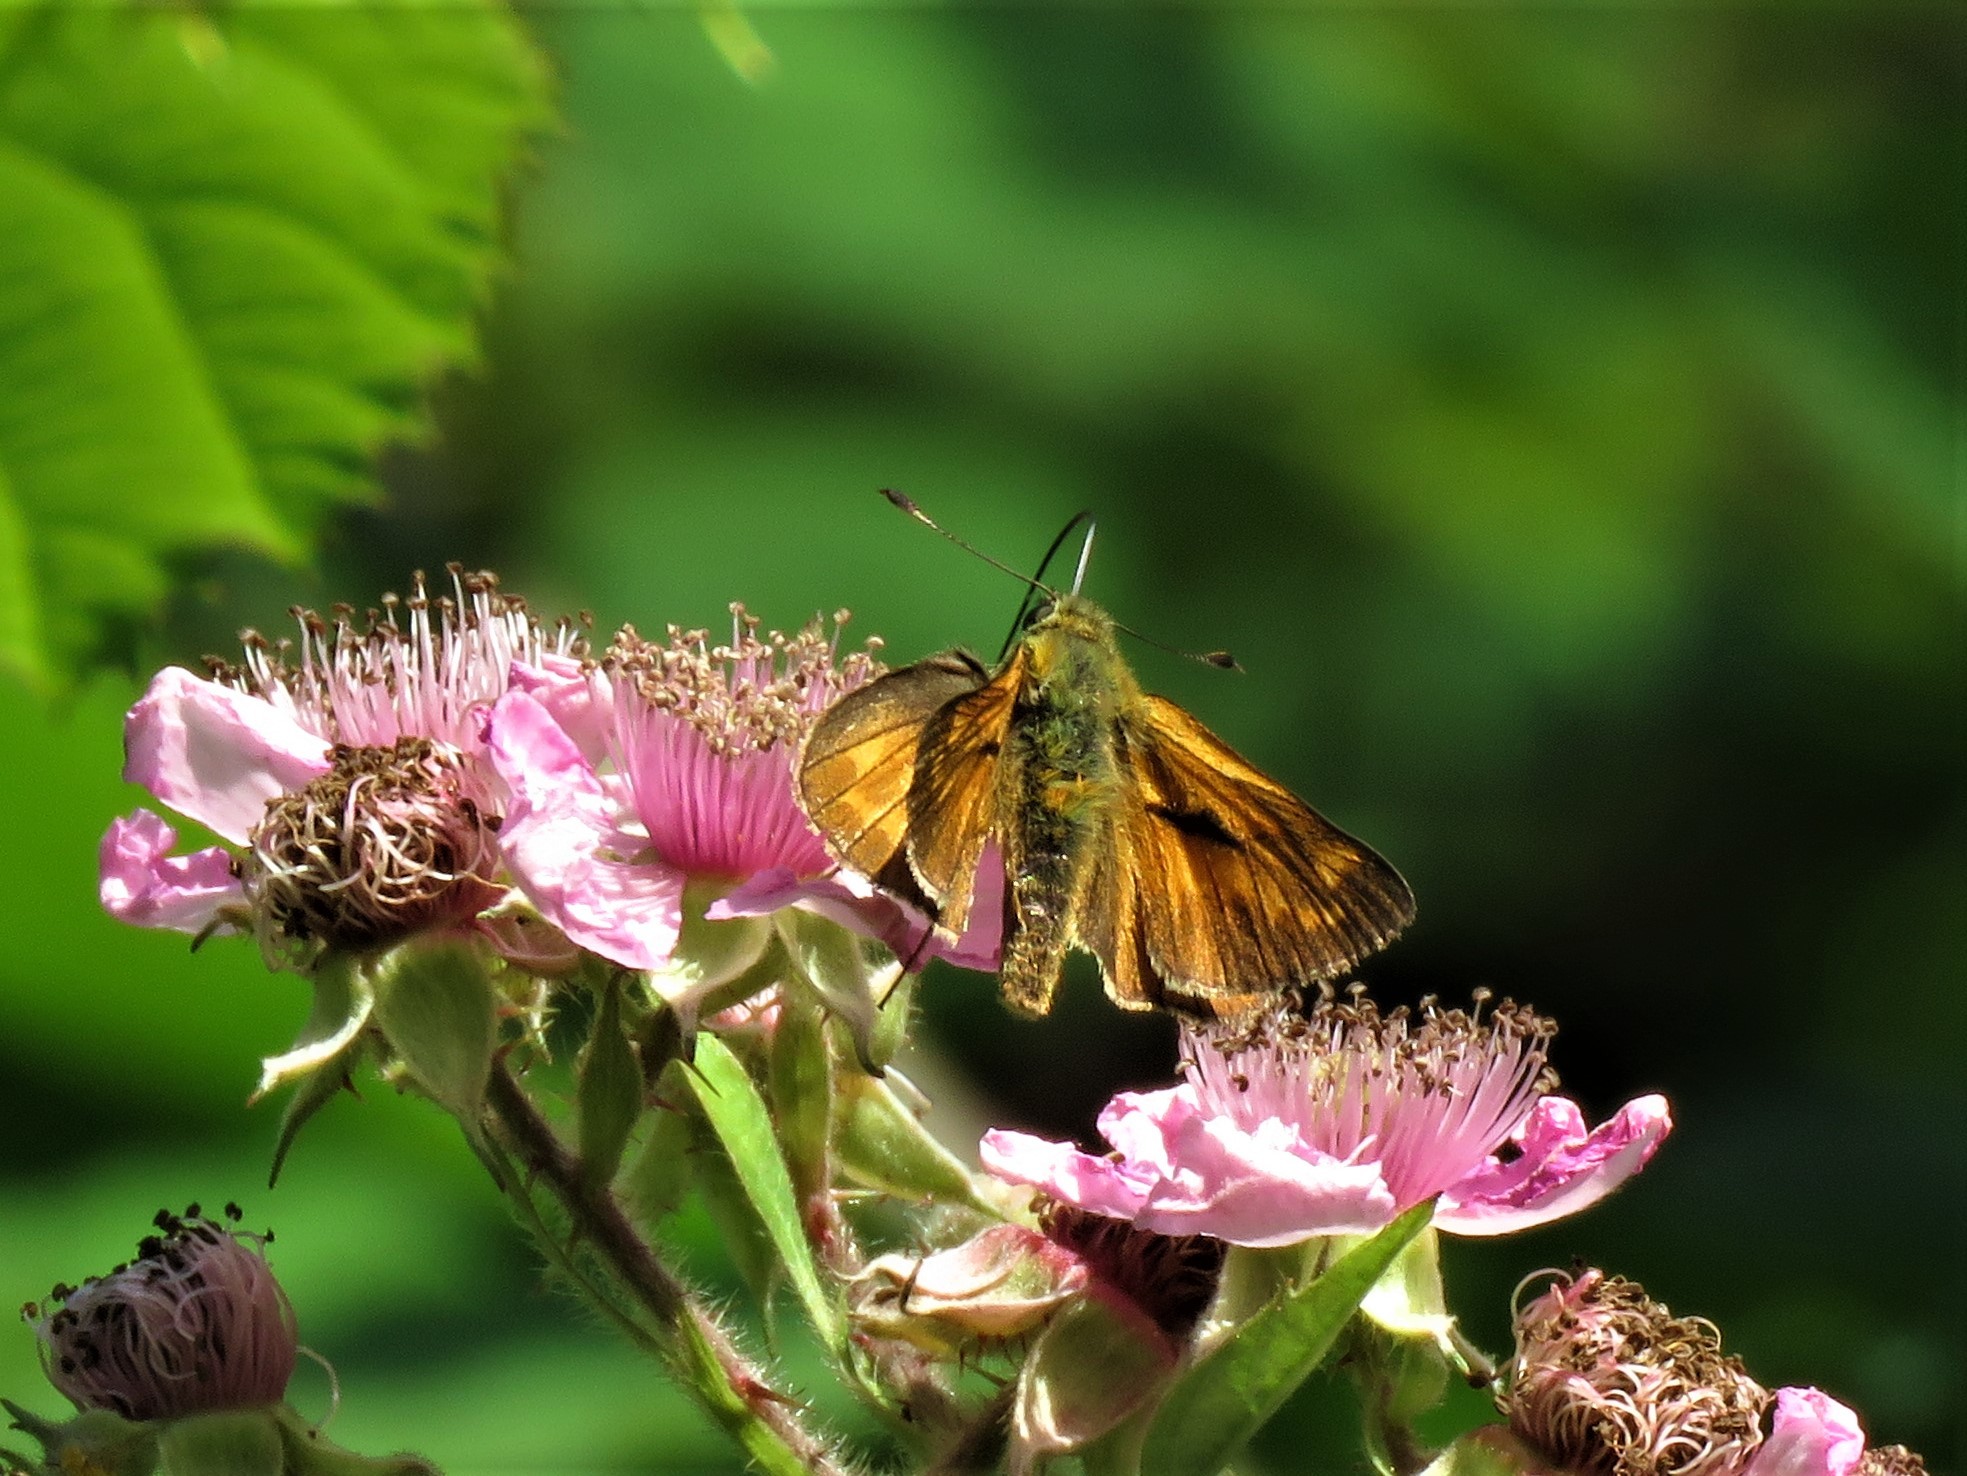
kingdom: Animalia
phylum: Arthropoda
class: Insecta
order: Lepidoptera
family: Hesperiidae
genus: Ochlodes
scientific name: Ochlodes venata
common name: Large skipper
